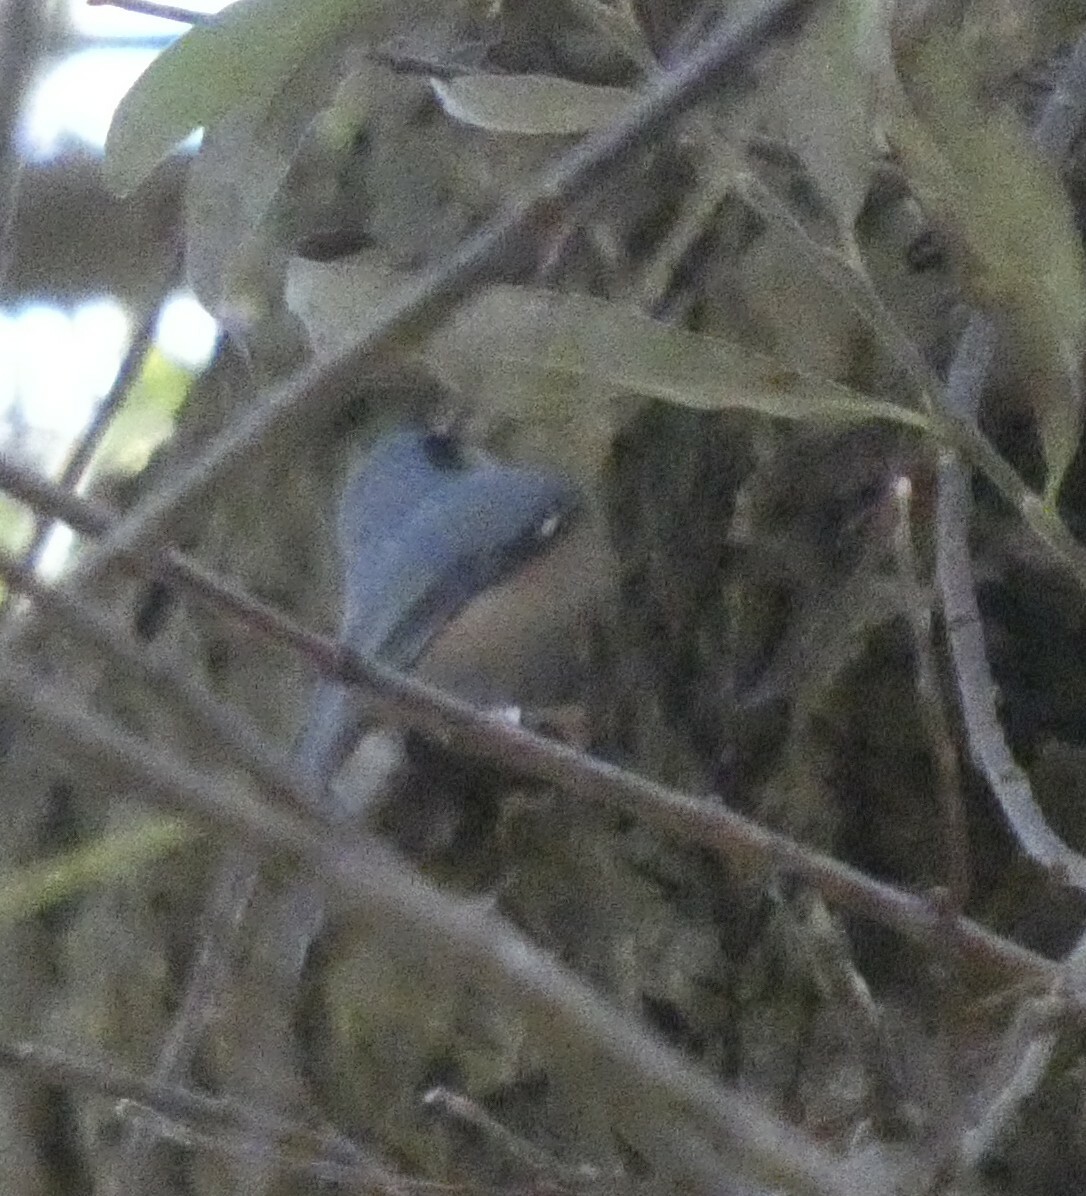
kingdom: Animalia
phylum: Chordata
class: Aves
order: Passeriformes
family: Sittidae
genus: Sitta
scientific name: Sitta europaea
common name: Eurasian nuthatch
